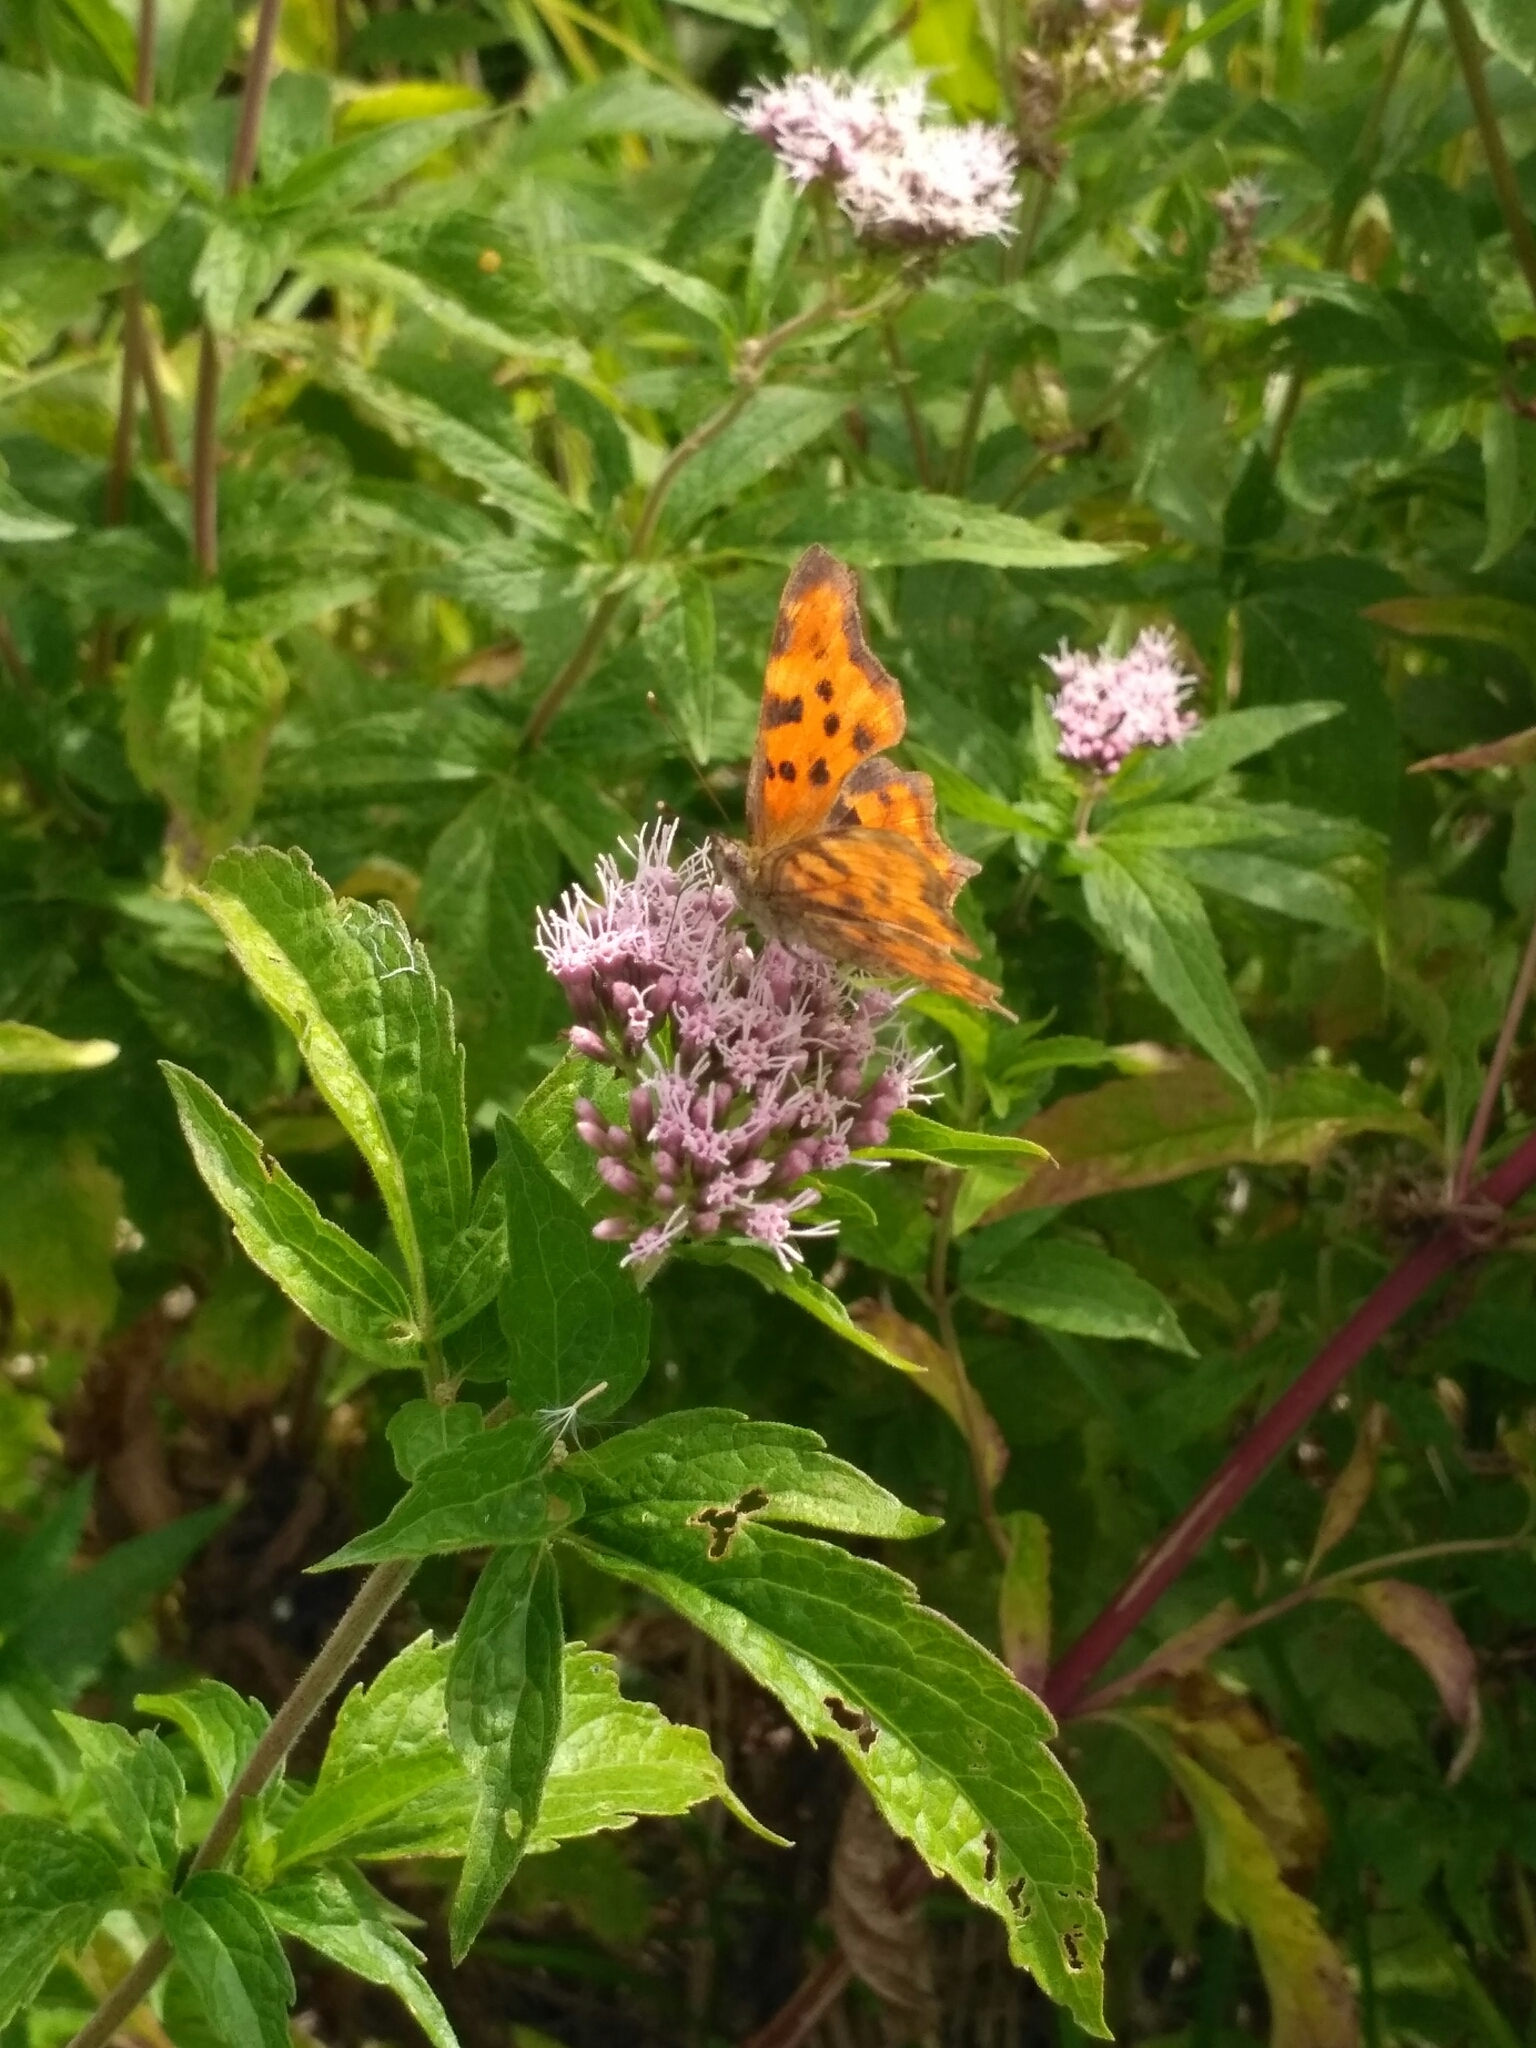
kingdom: Animalia
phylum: Arthropoda
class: Insecta
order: Lepidoptera
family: Nymphalidae
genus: Polygonia
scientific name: Polygonia c-album
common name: Comma
